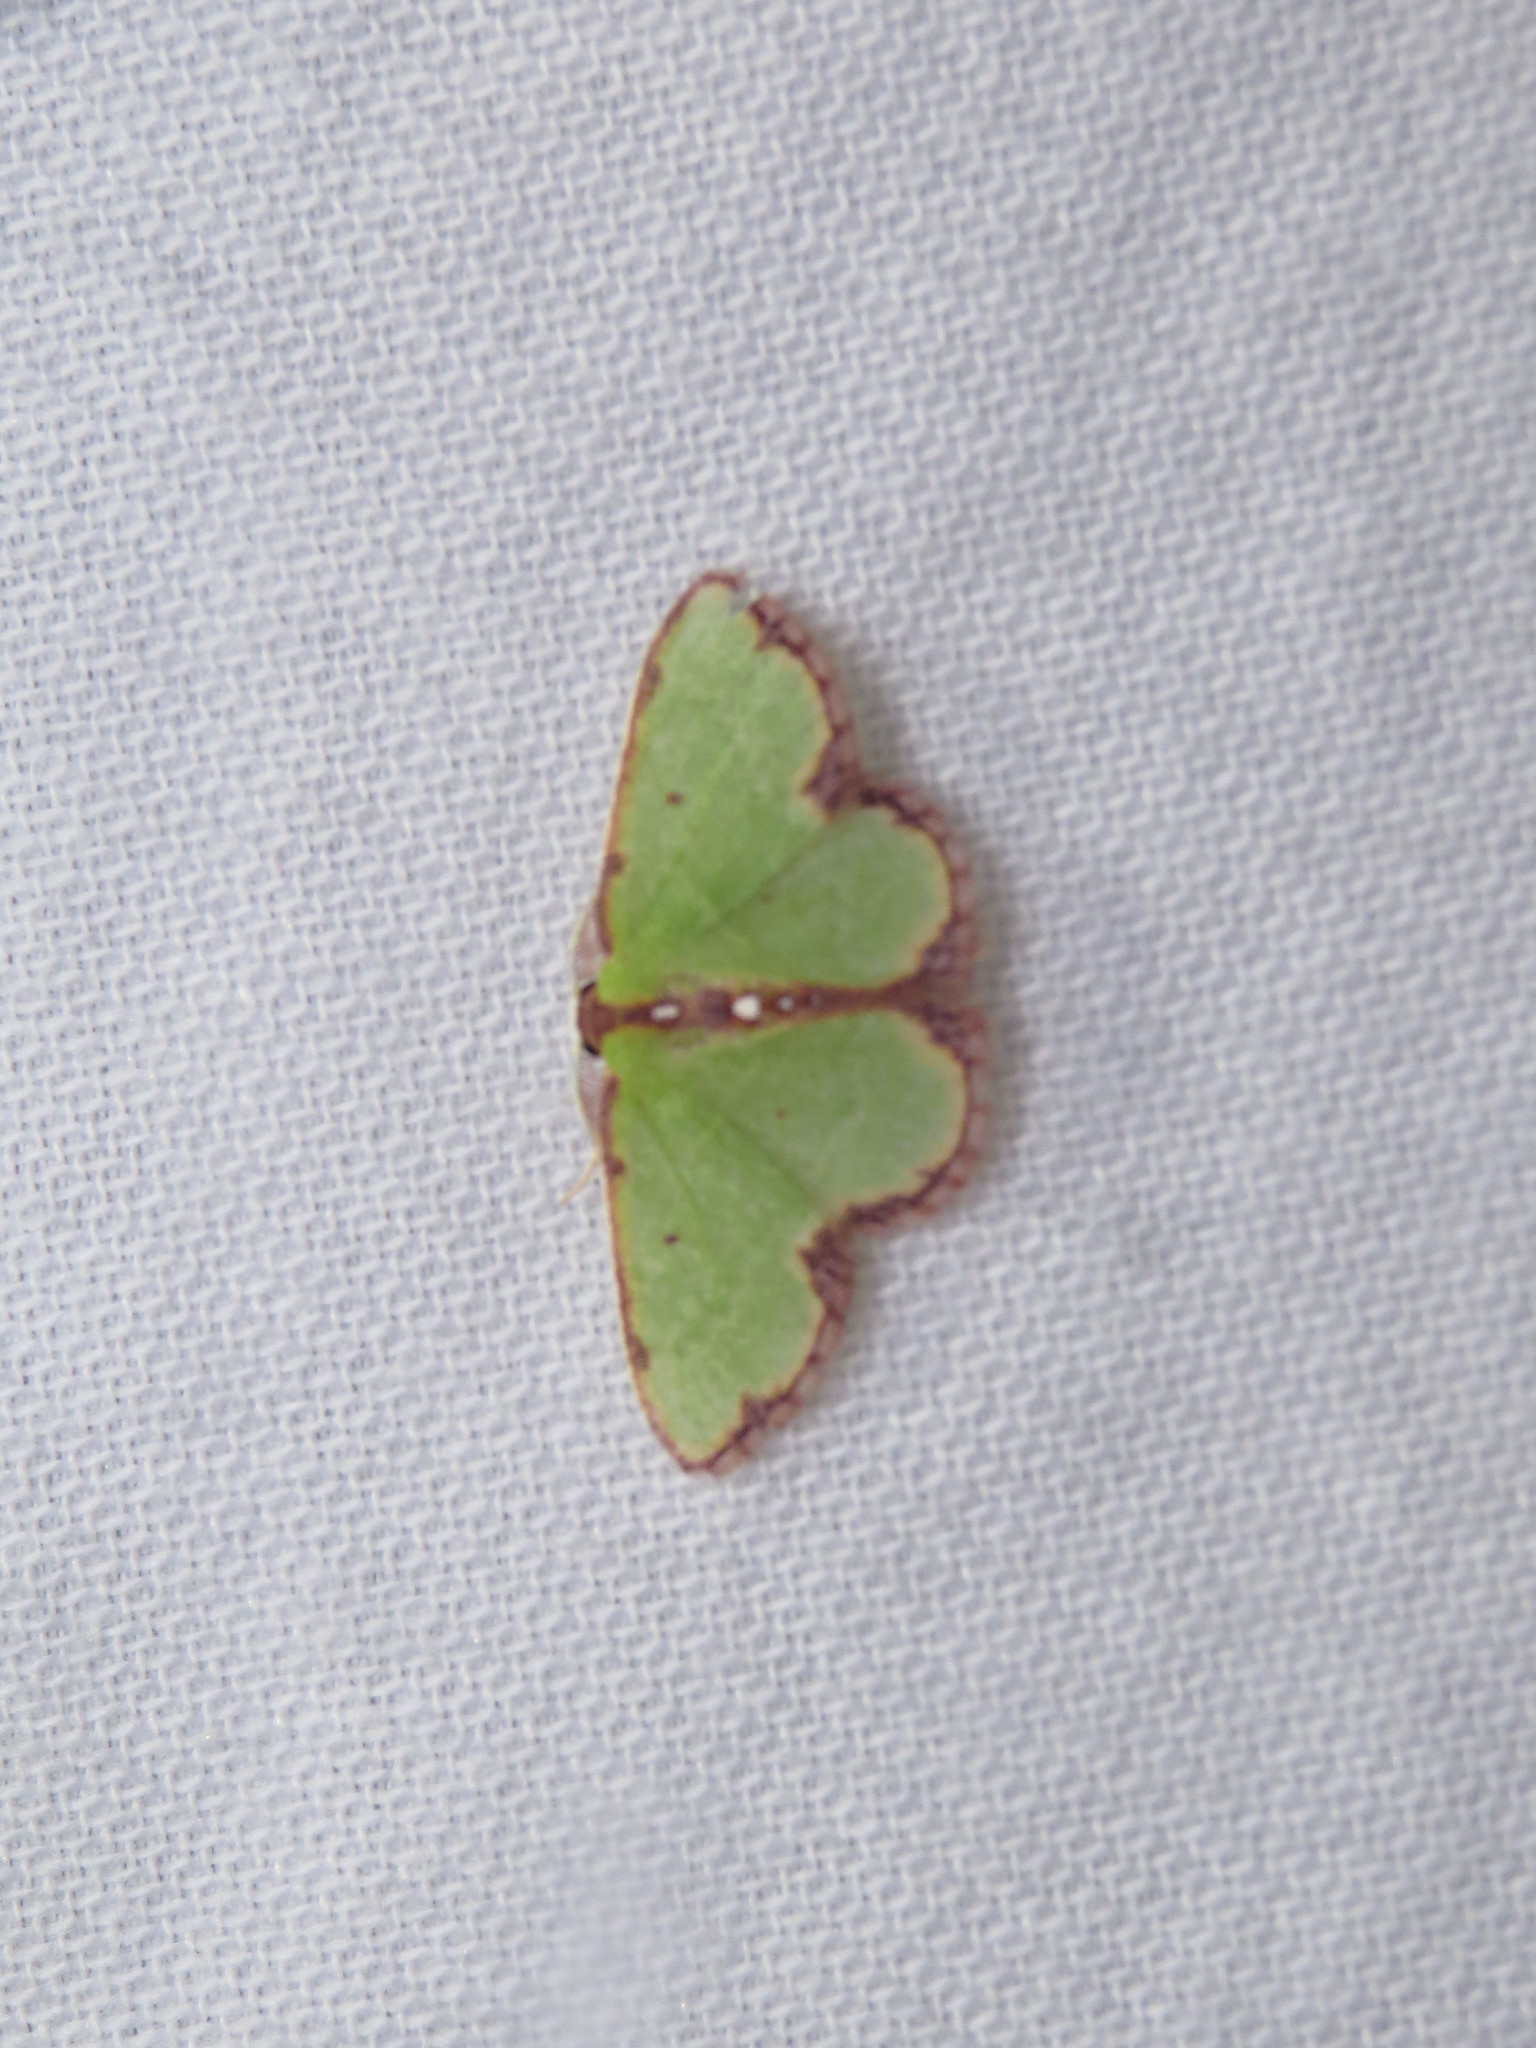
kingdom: Animalia
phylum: Arthropoda
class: Insecta
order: Lepidoptera
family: Geometridae
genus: Synchlora
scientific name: Synchlora cupedinaria
